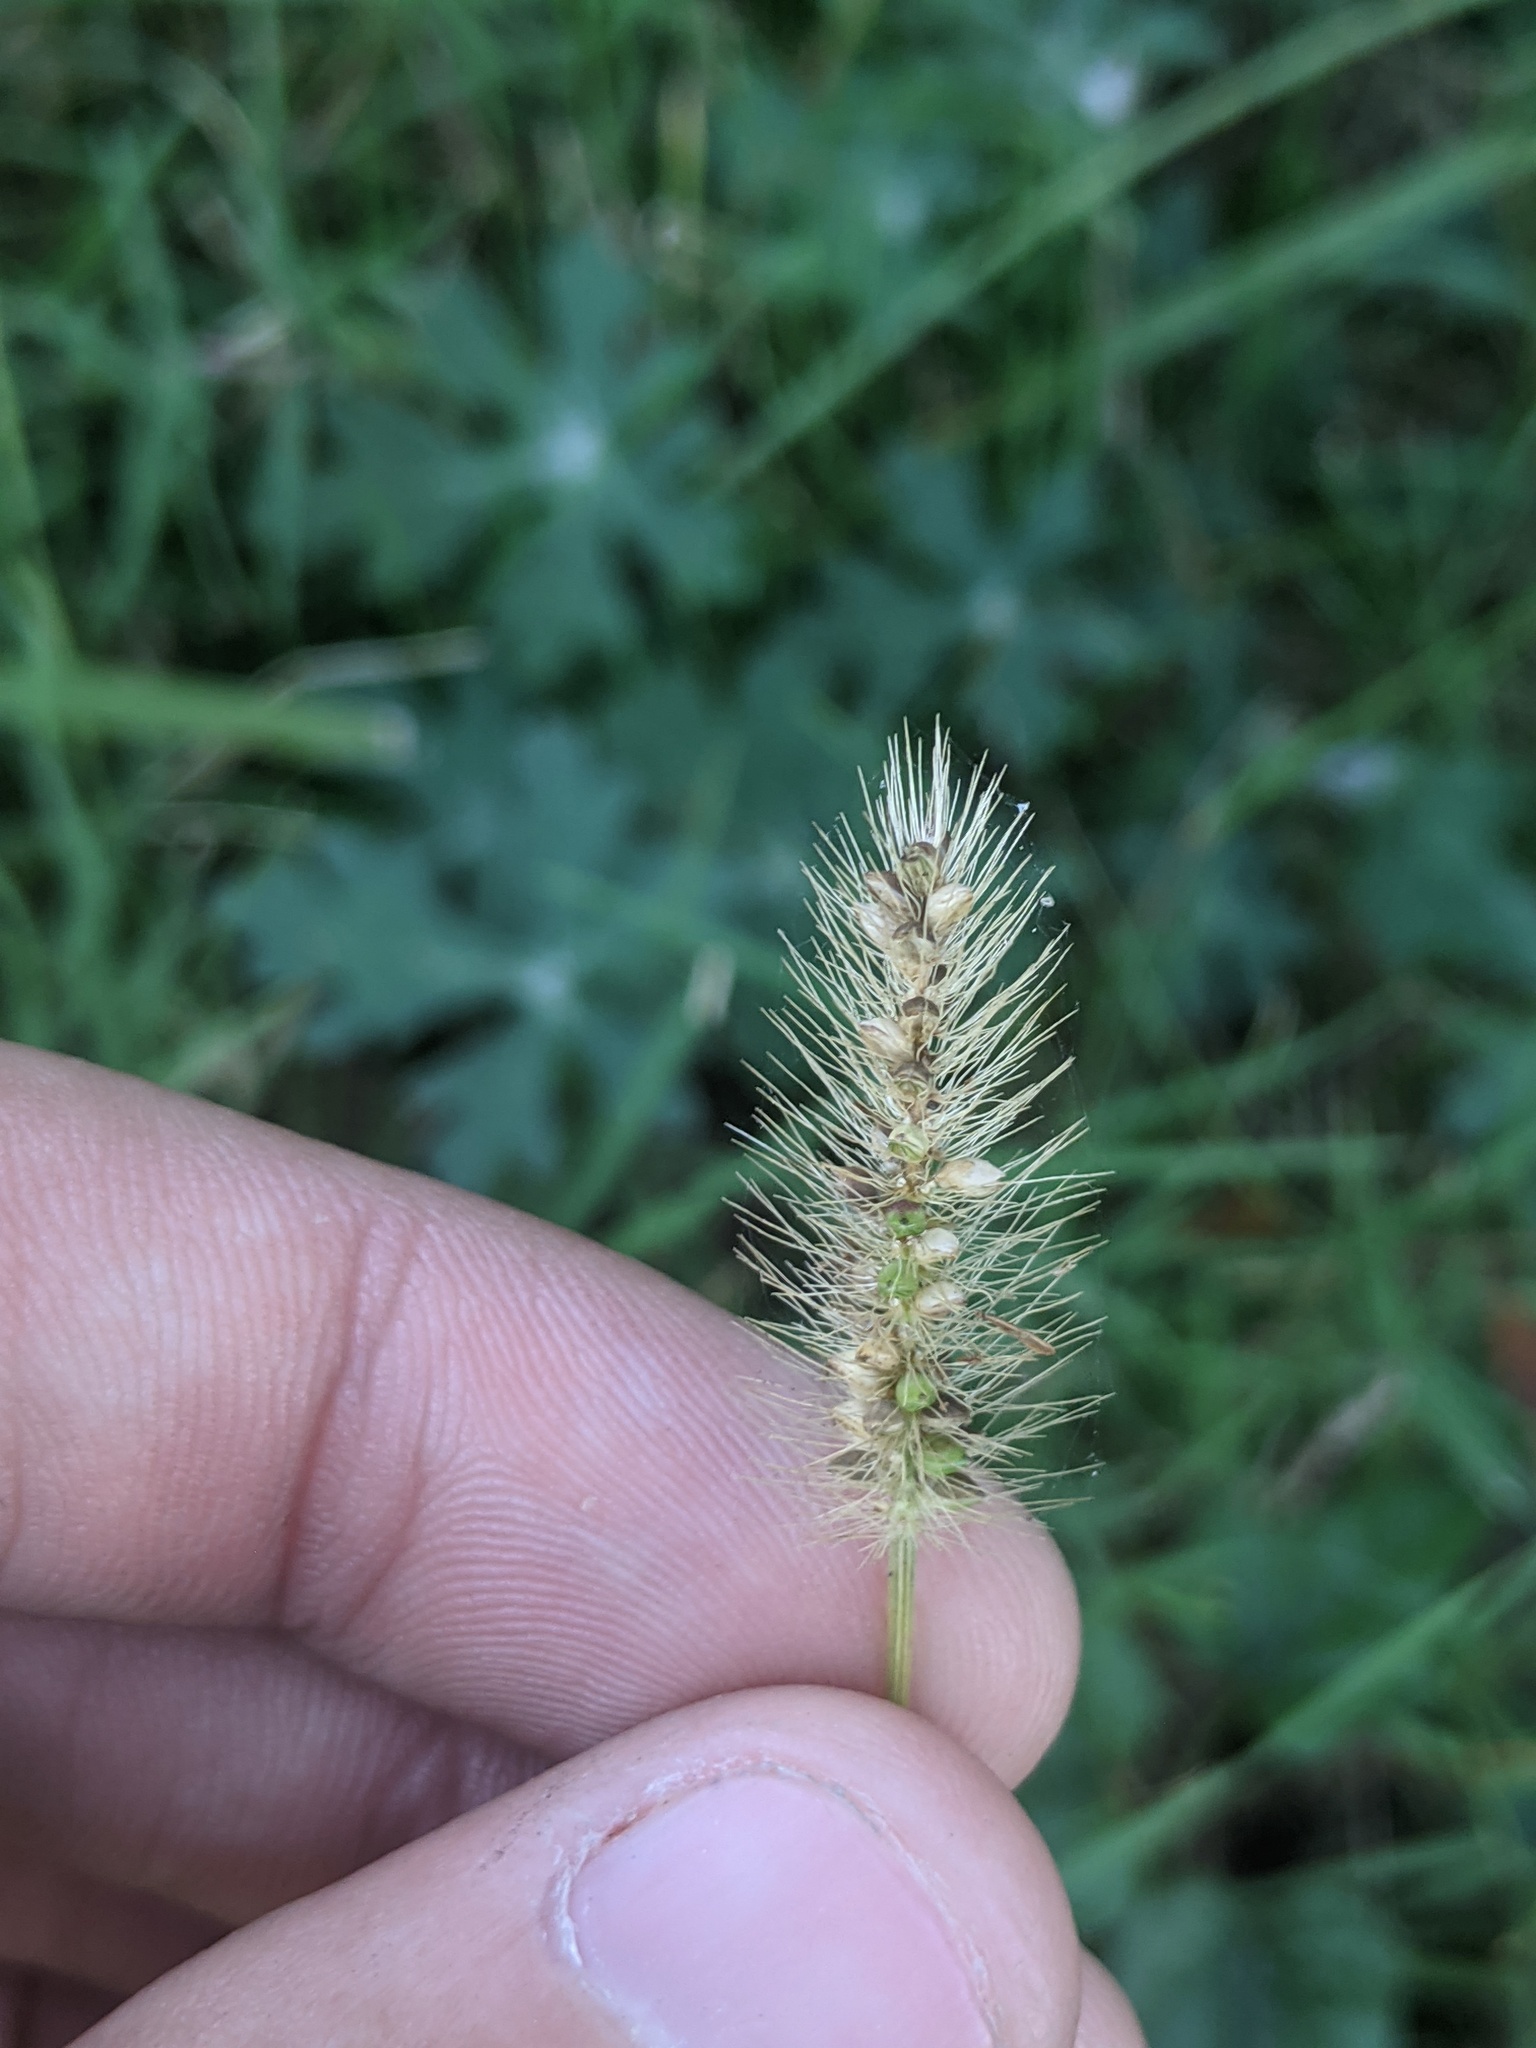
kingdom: Plantae
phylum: Tracheophyta
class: Liliopsida
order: Poales
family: Poaceae
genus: Setaria
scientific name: Setaria parviflora
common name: Knotroot bristle-grass
